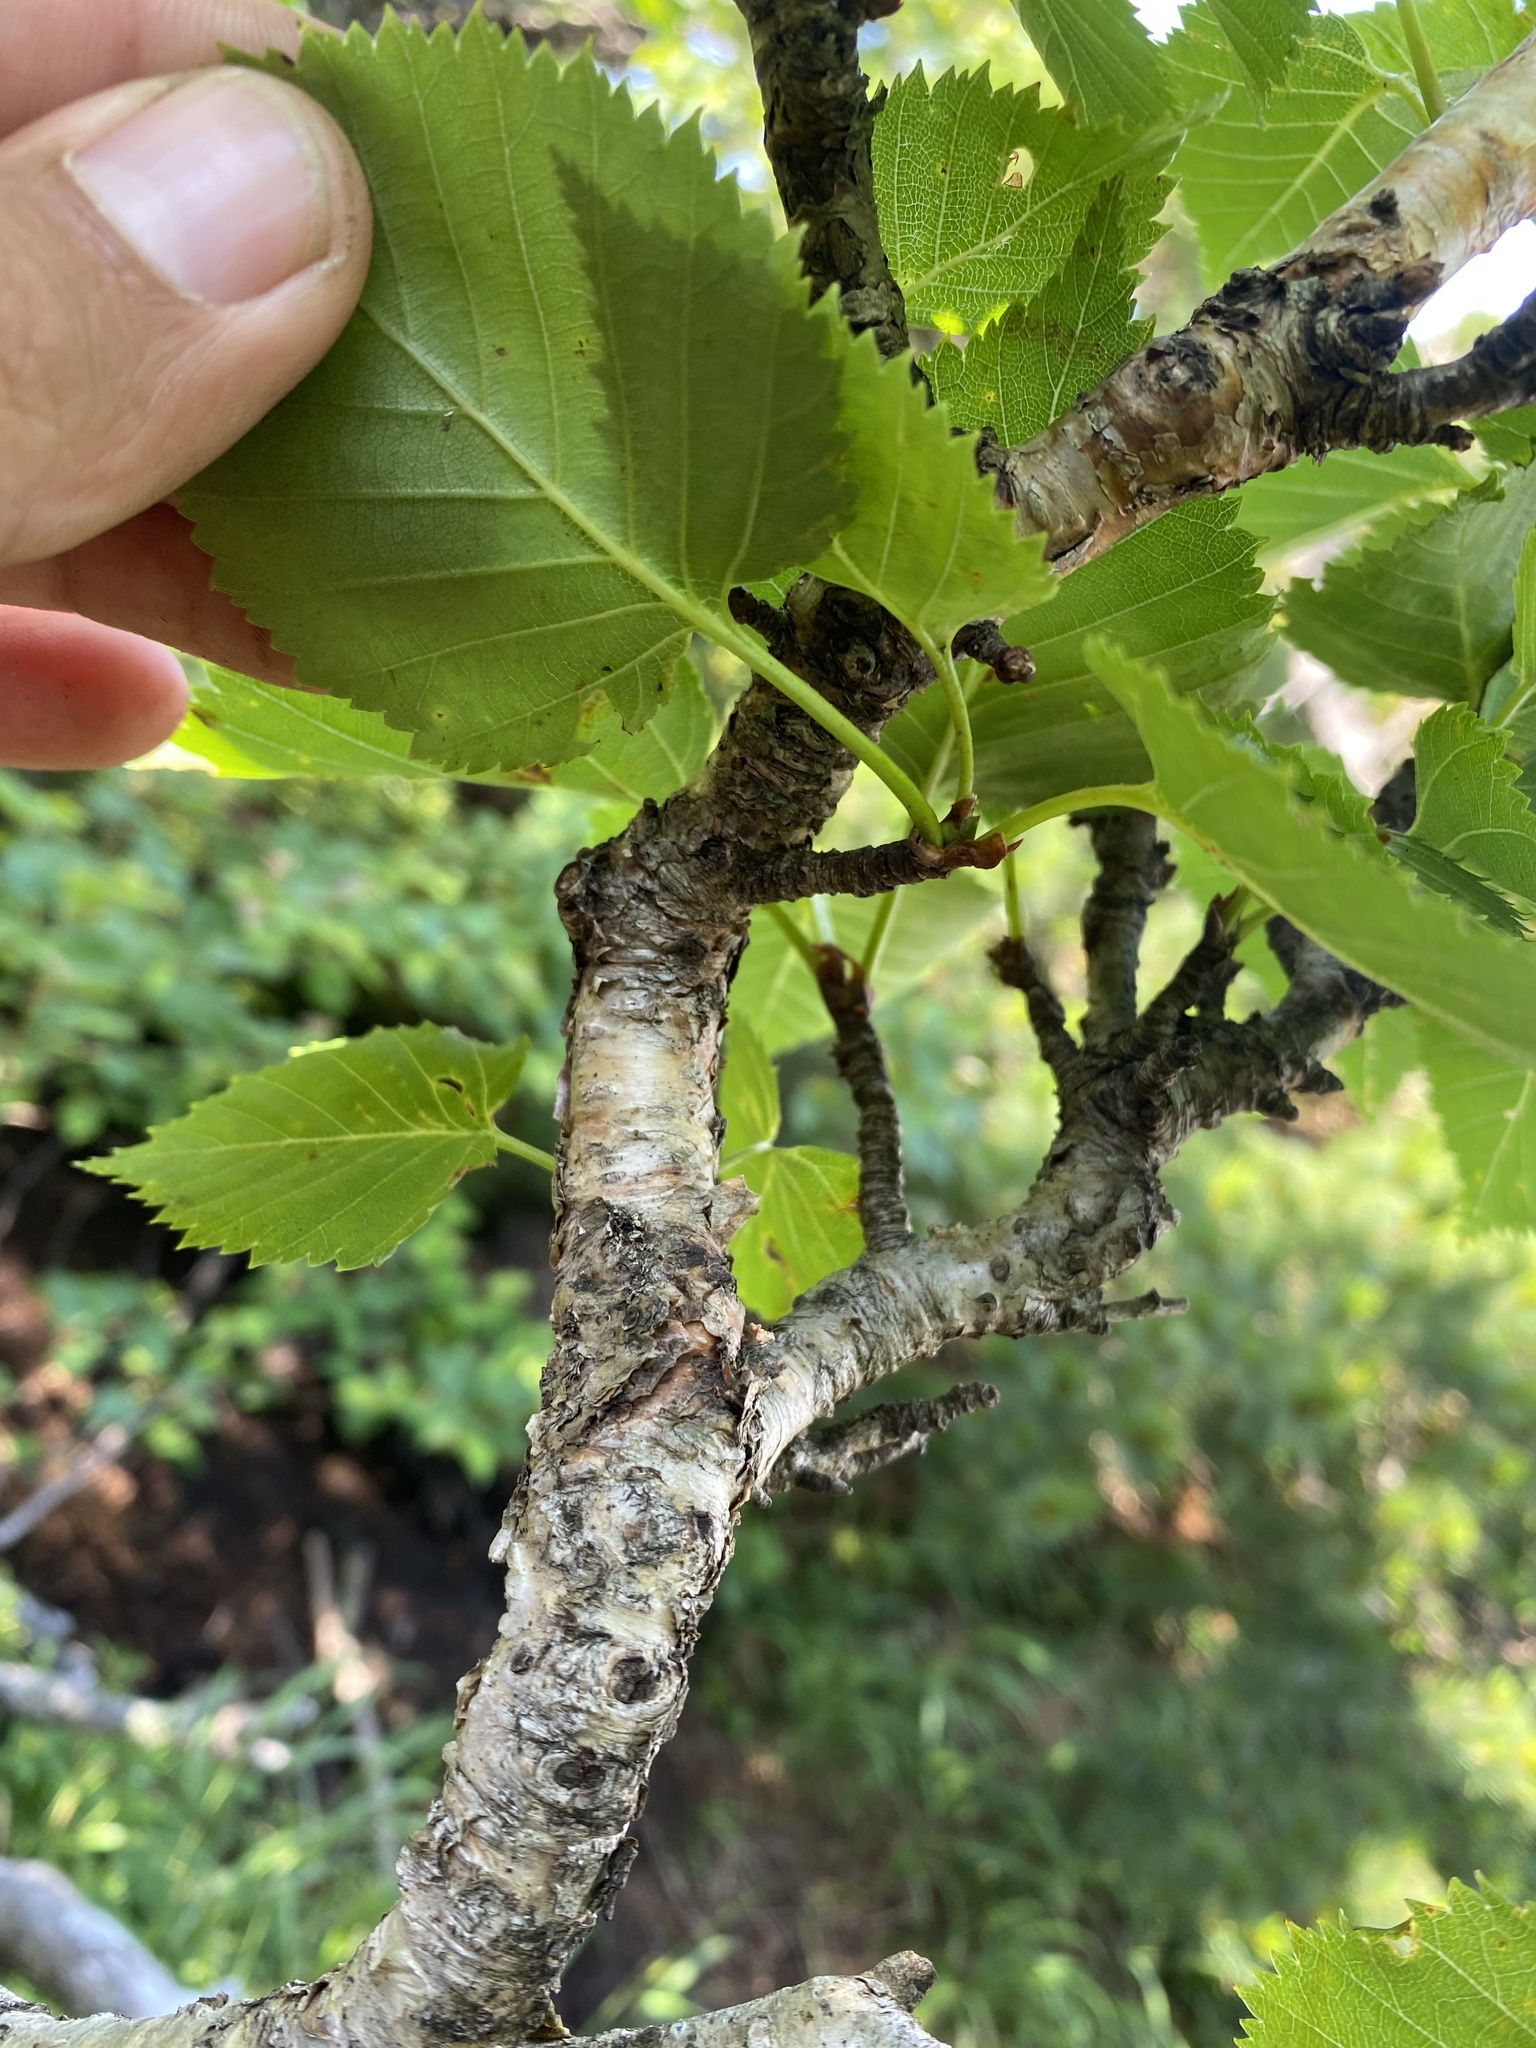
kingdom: Plantae
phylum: Tracheophyta
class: Magnoliopsida
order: Fagales
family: Betulaceae
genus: Betula
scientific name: Betula ermanii
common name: Erman's birch
